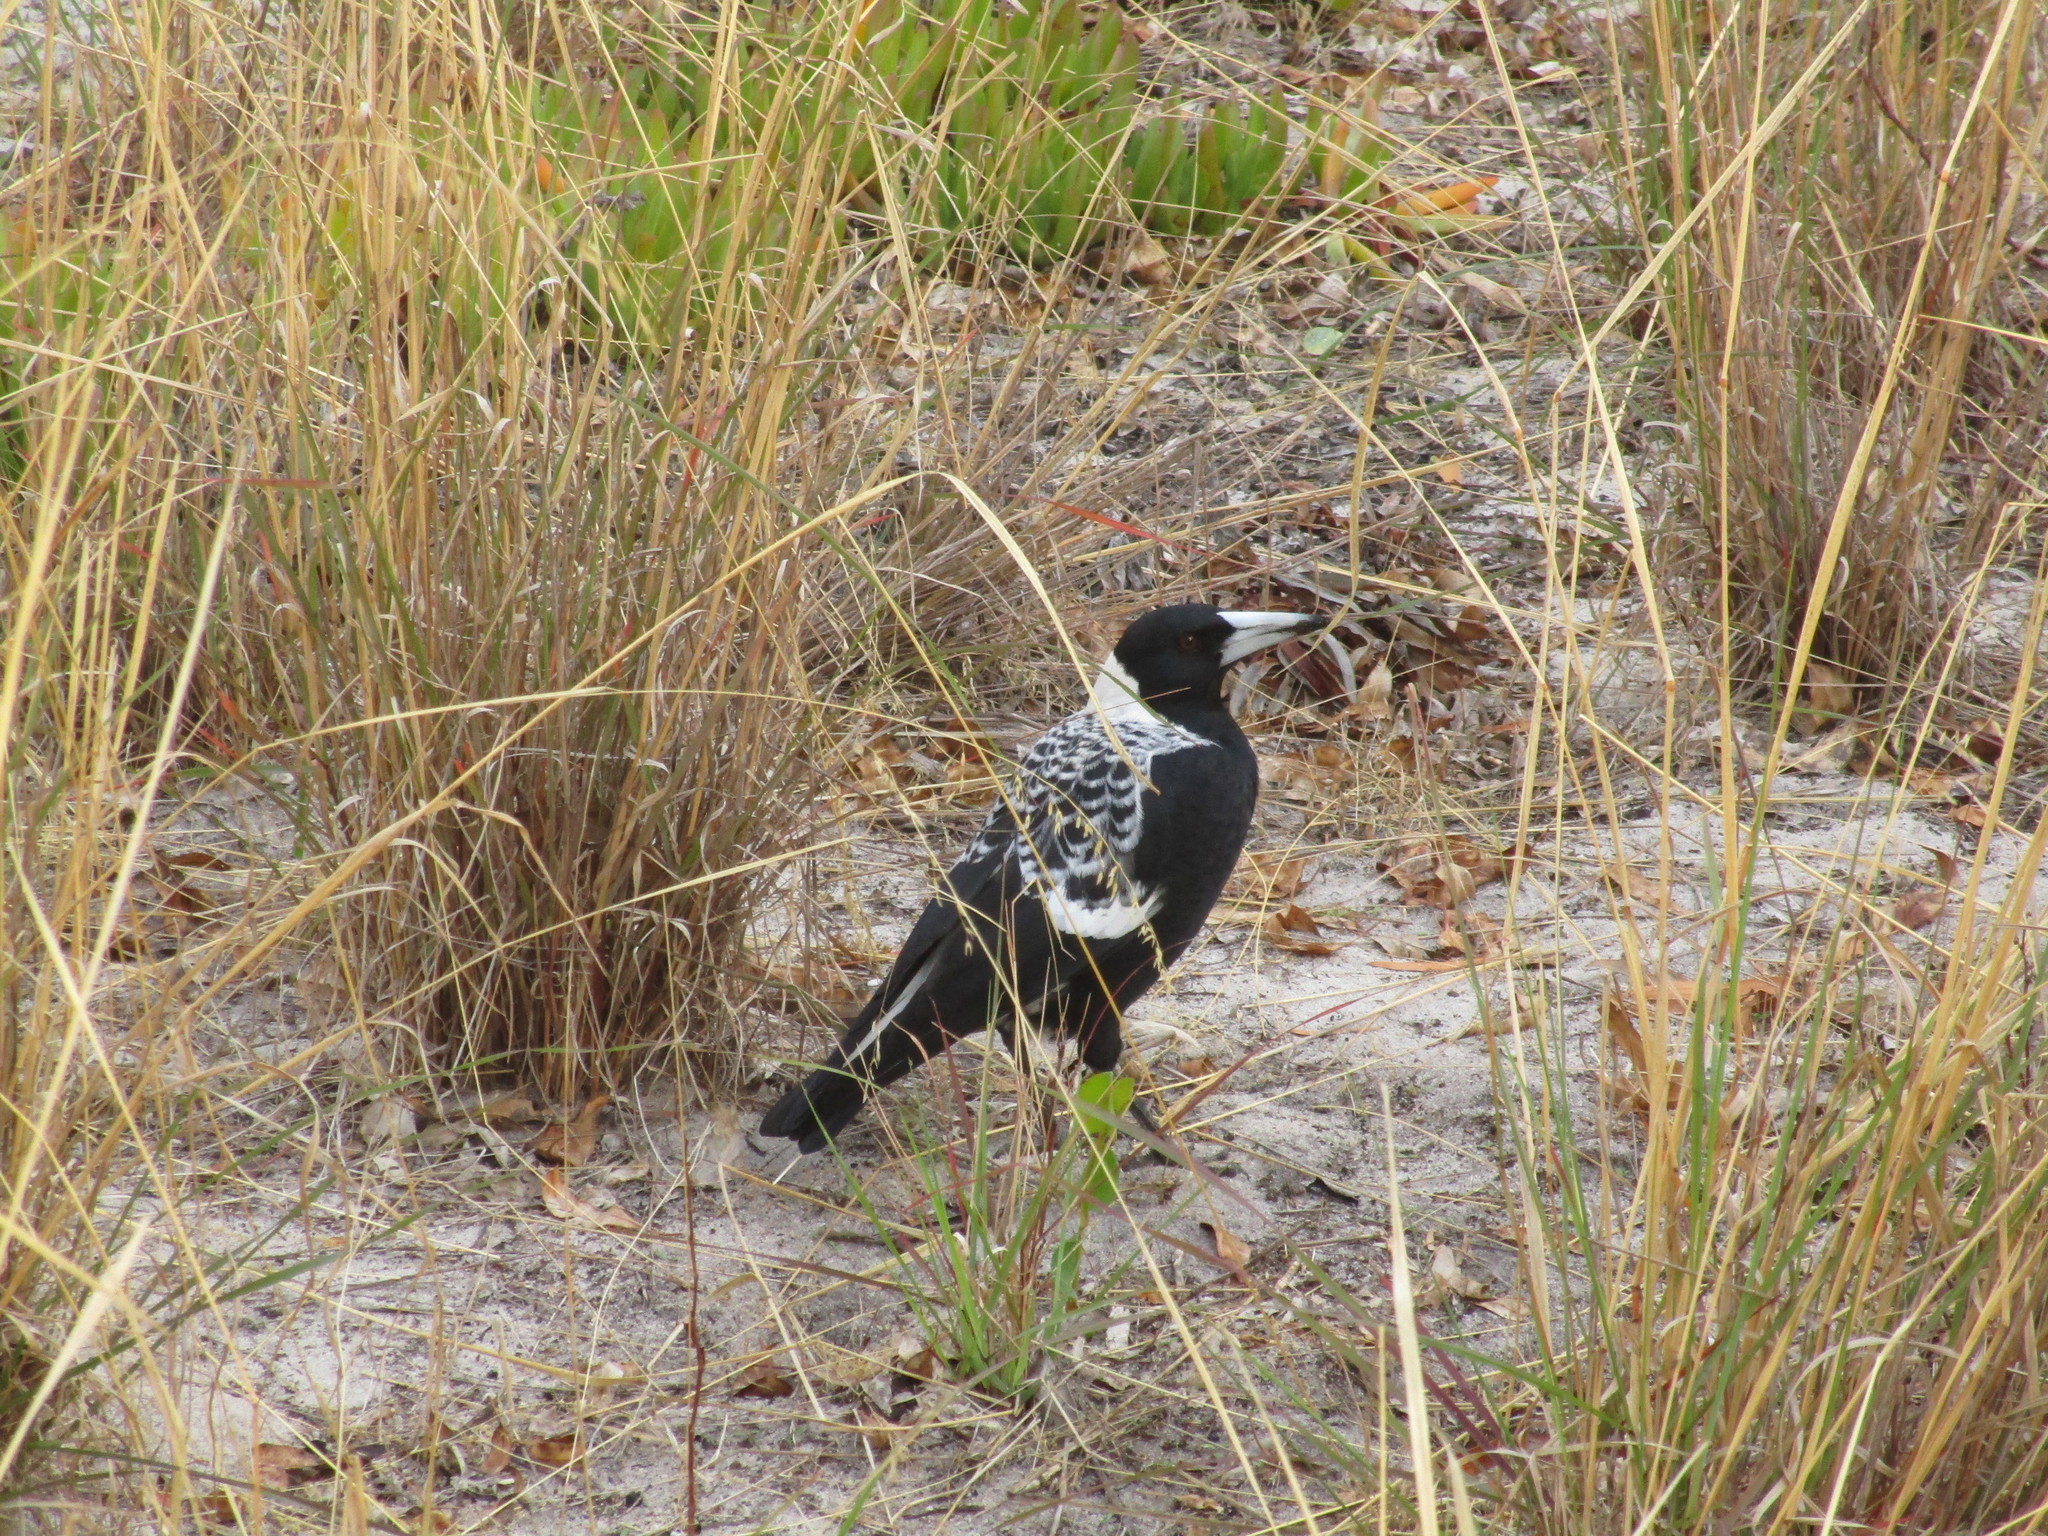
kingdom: Animalia
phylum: Chordata
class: Aves
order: Passeriformes
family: Cracticidae
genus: Gymnorhina
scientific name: Gymnorhina tibicen
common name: Australian magpie
